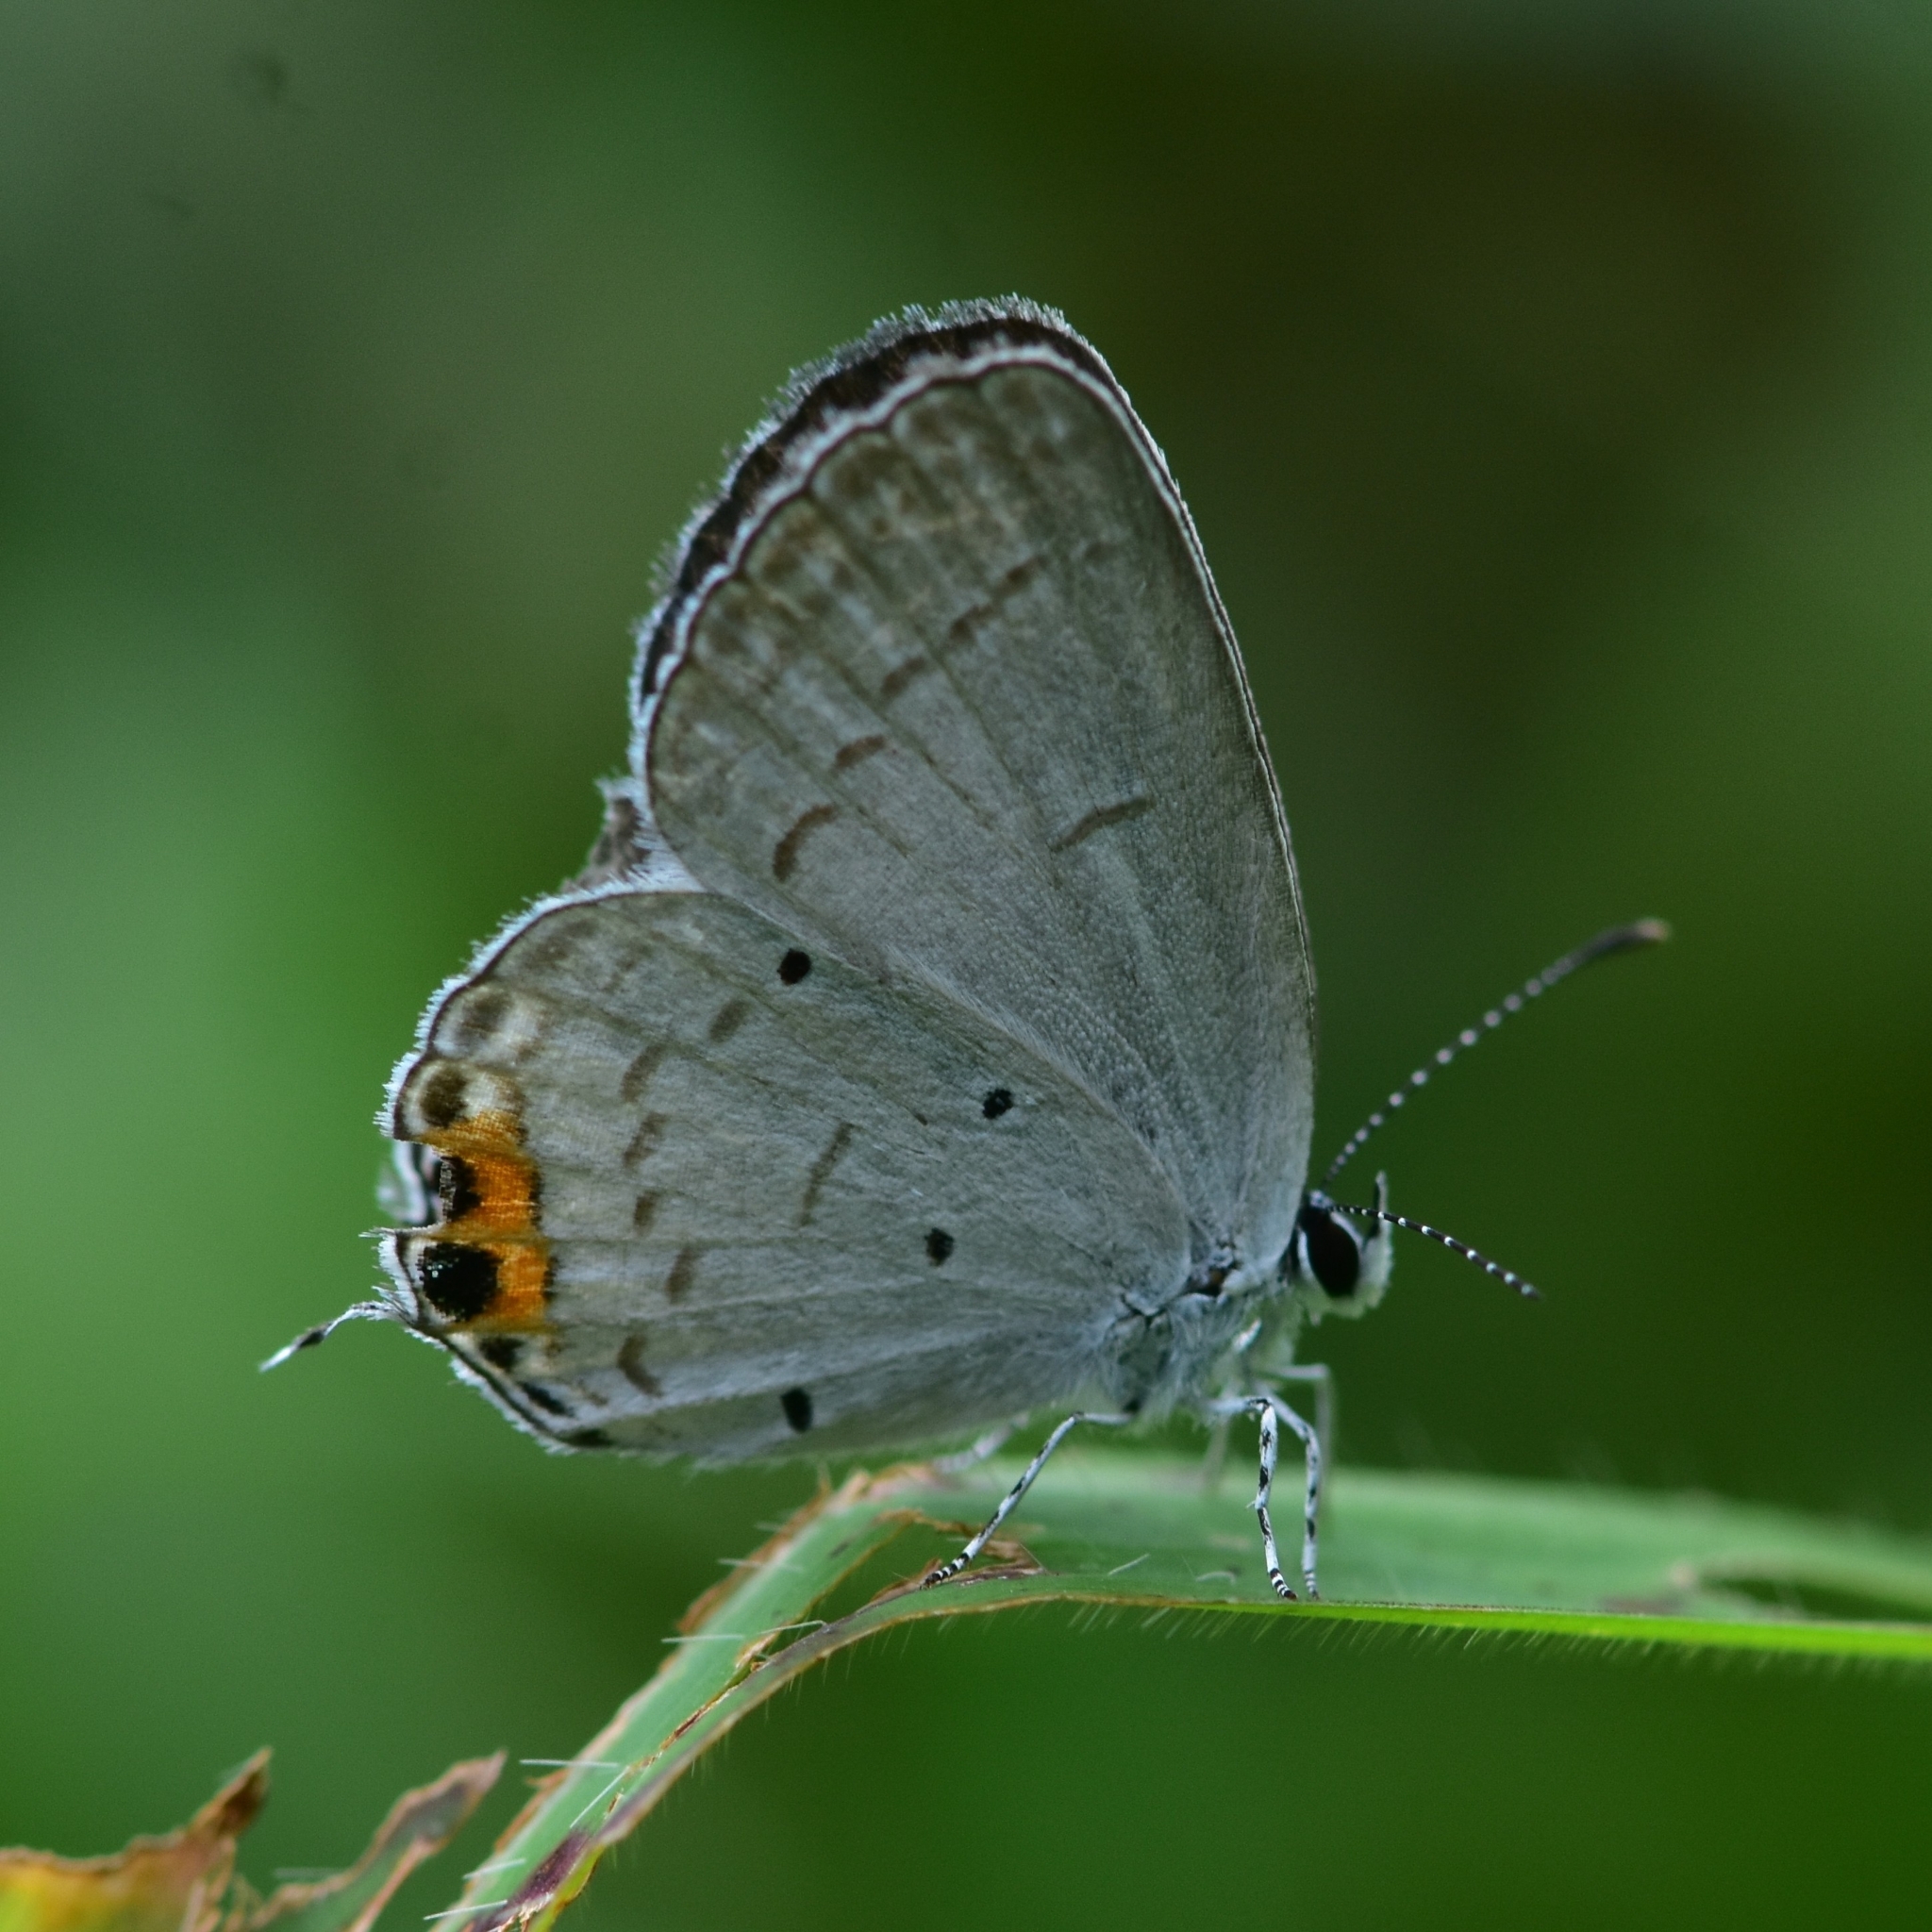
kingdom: Animalia
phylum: Arthropoda
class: Insecta
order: Lepidoptera
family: Lycaenidae
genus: Everes
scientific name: Everes lacturnus
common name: Orange-tipped pea-blue
